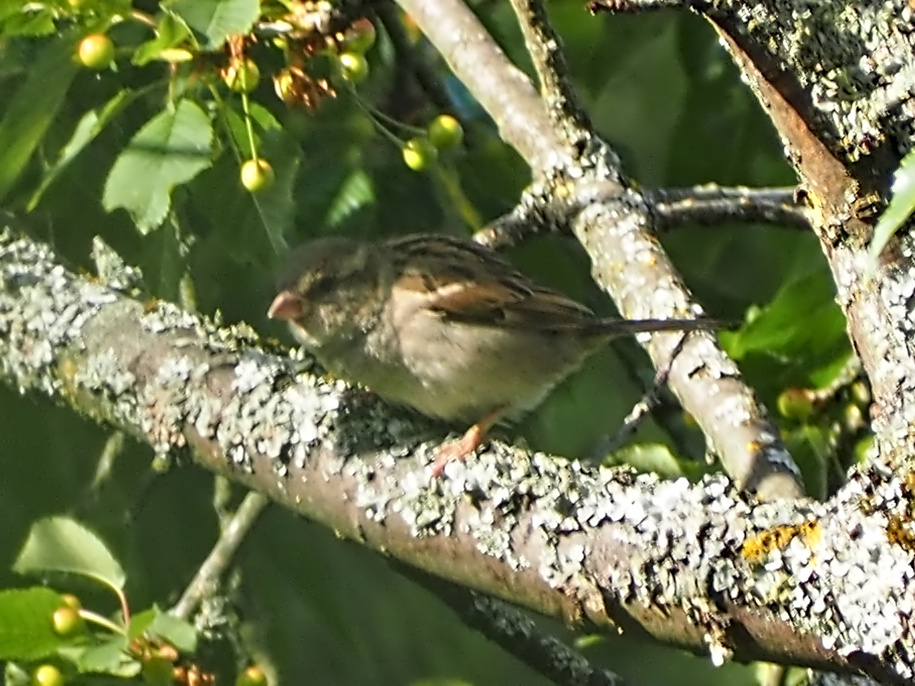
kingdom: Animalia
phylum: Chordata
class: Aves
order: Passeriformes
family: Passeridae
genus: Passer
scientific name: Passer domesticus
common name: House sparrow
